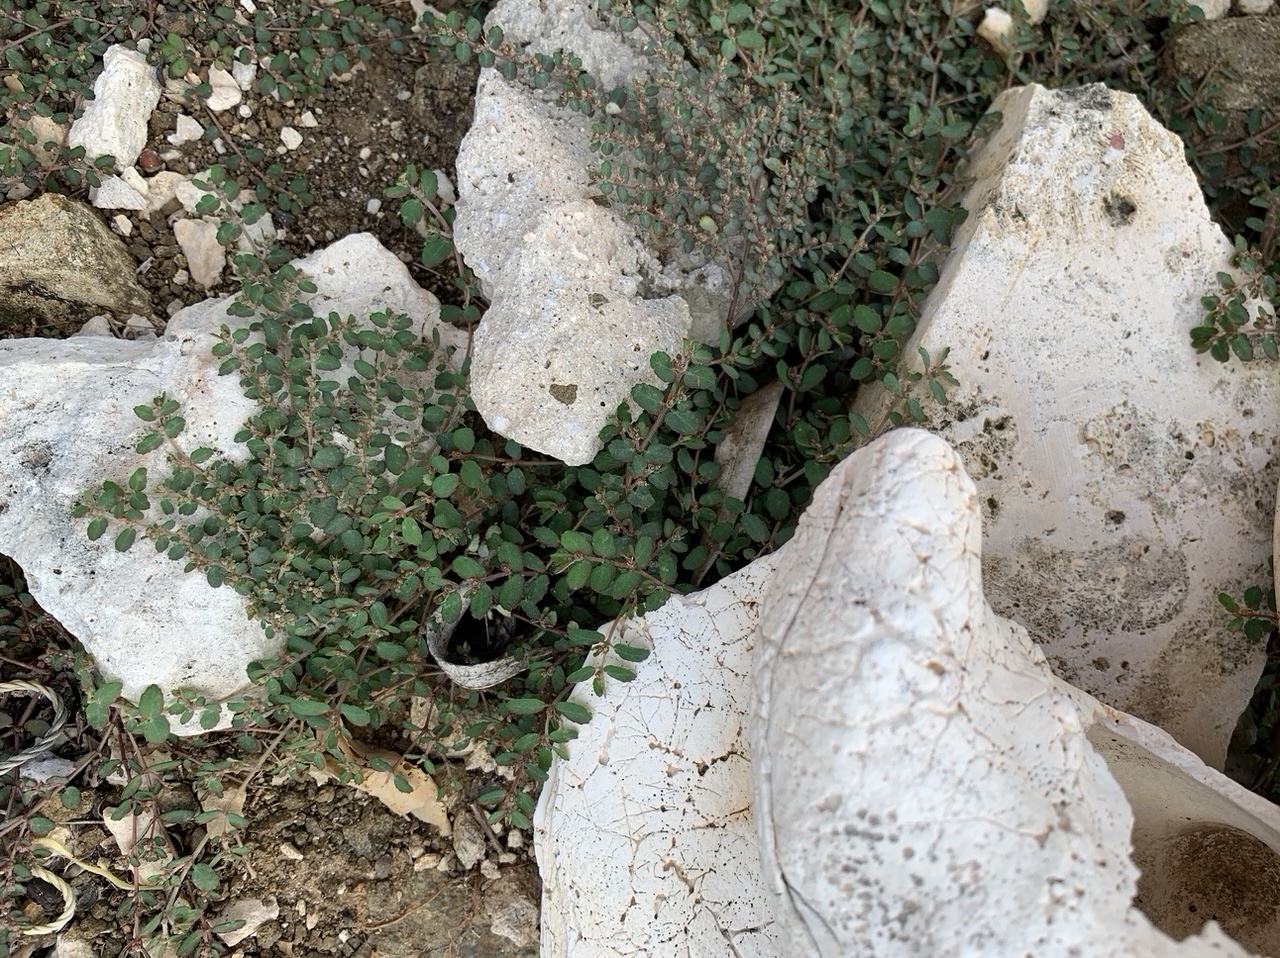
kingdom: Plantae
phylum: Tracheophyta
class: Magnoliopsida
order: Malpighiales
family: Euphorbiaceae
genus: Euphorbia
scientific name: Euphorbia dioeca
